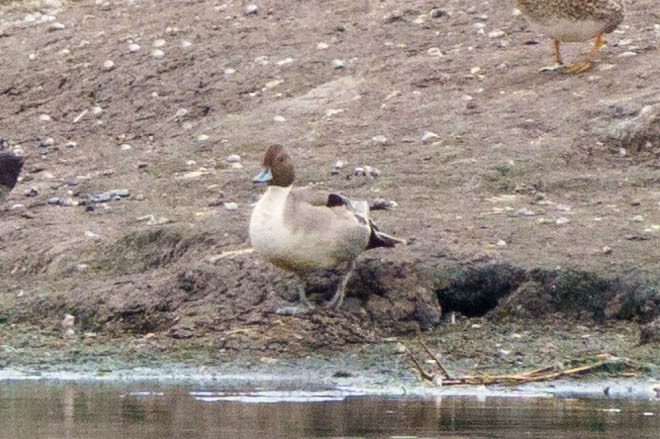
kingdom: Animalia
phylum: Chordata
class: Aves
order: Anseriformes
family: Anatidae
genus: Anas
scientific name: Anas acuta
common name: Northern pintail
